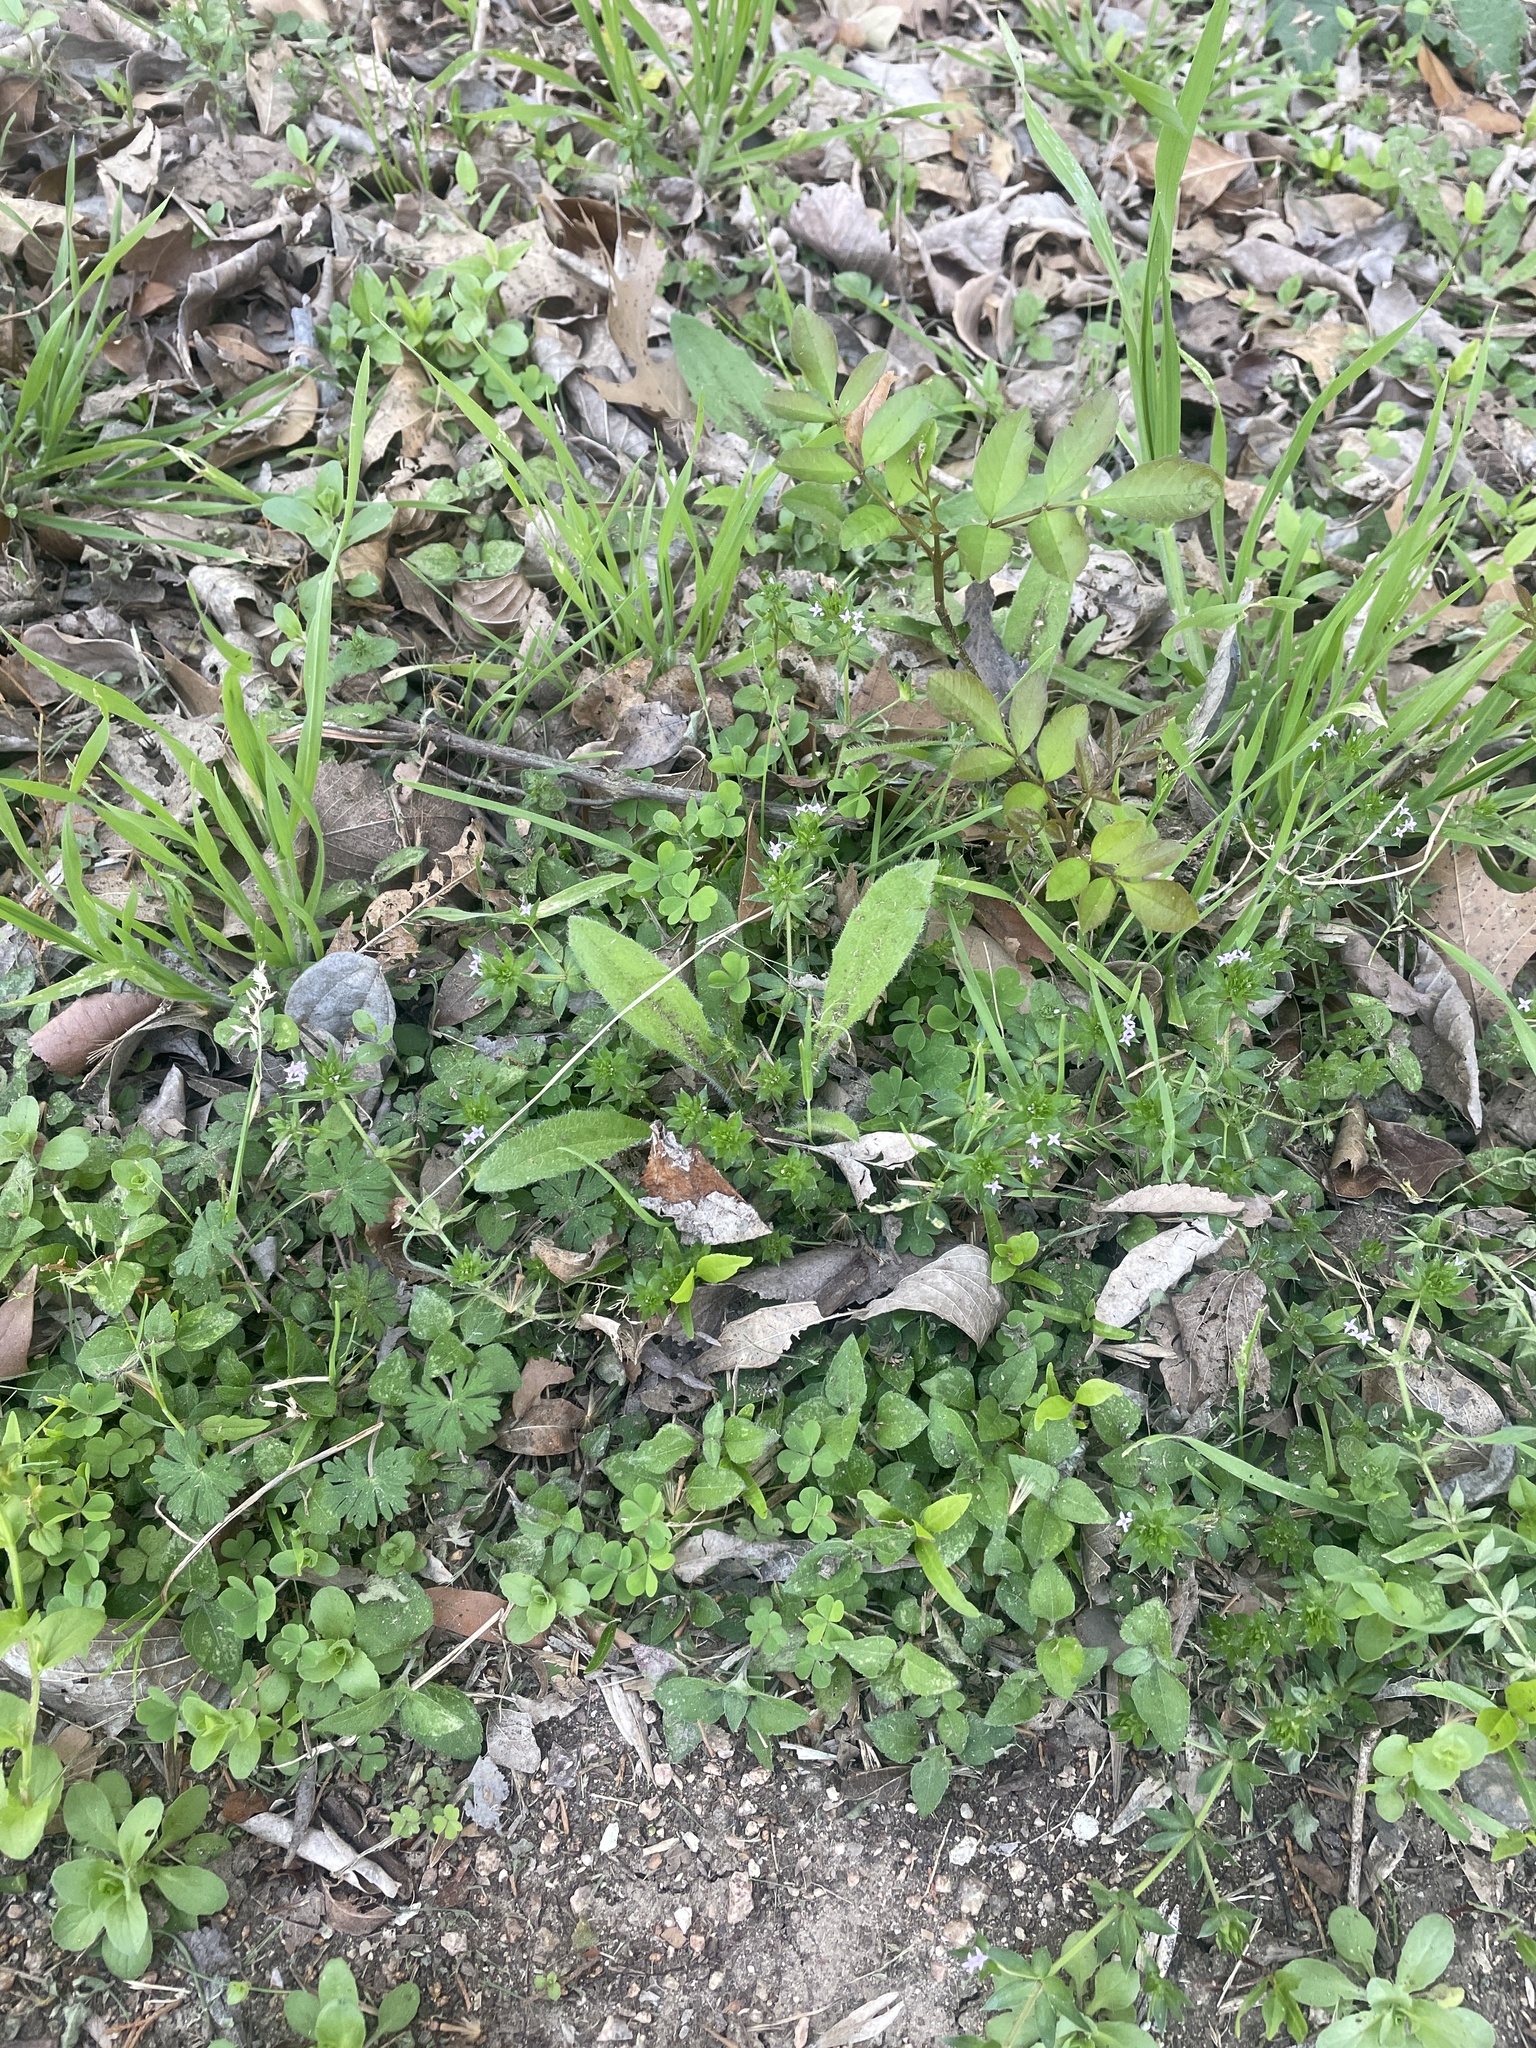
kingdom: Plantae
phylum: Tracheophyta
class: Magnoliopsida
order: Gentianales
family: Rubiaceae
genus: Sherardia
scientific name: Sherardia arvensis
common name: Field madder
